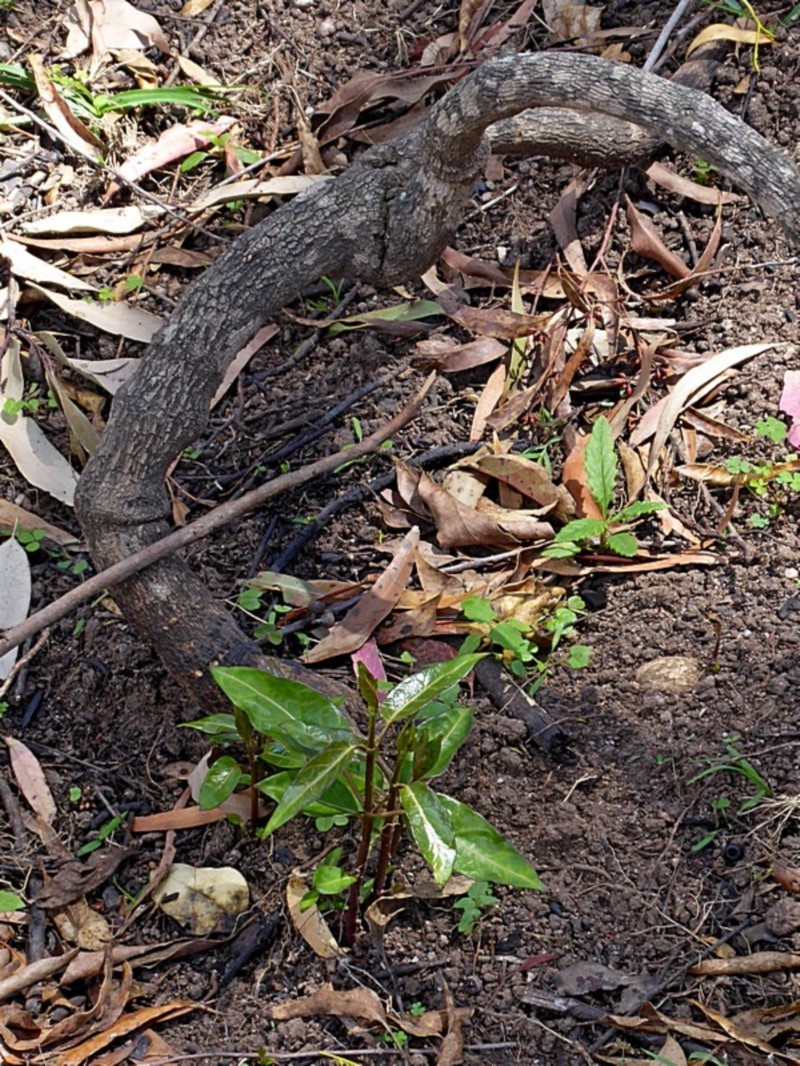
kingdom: Plantae
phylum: Tracheophyta
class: Magnoliopsida
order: Gentianales
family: Apocynaceae
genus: Leichhardtia
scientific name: Leichhardtia rostrata
